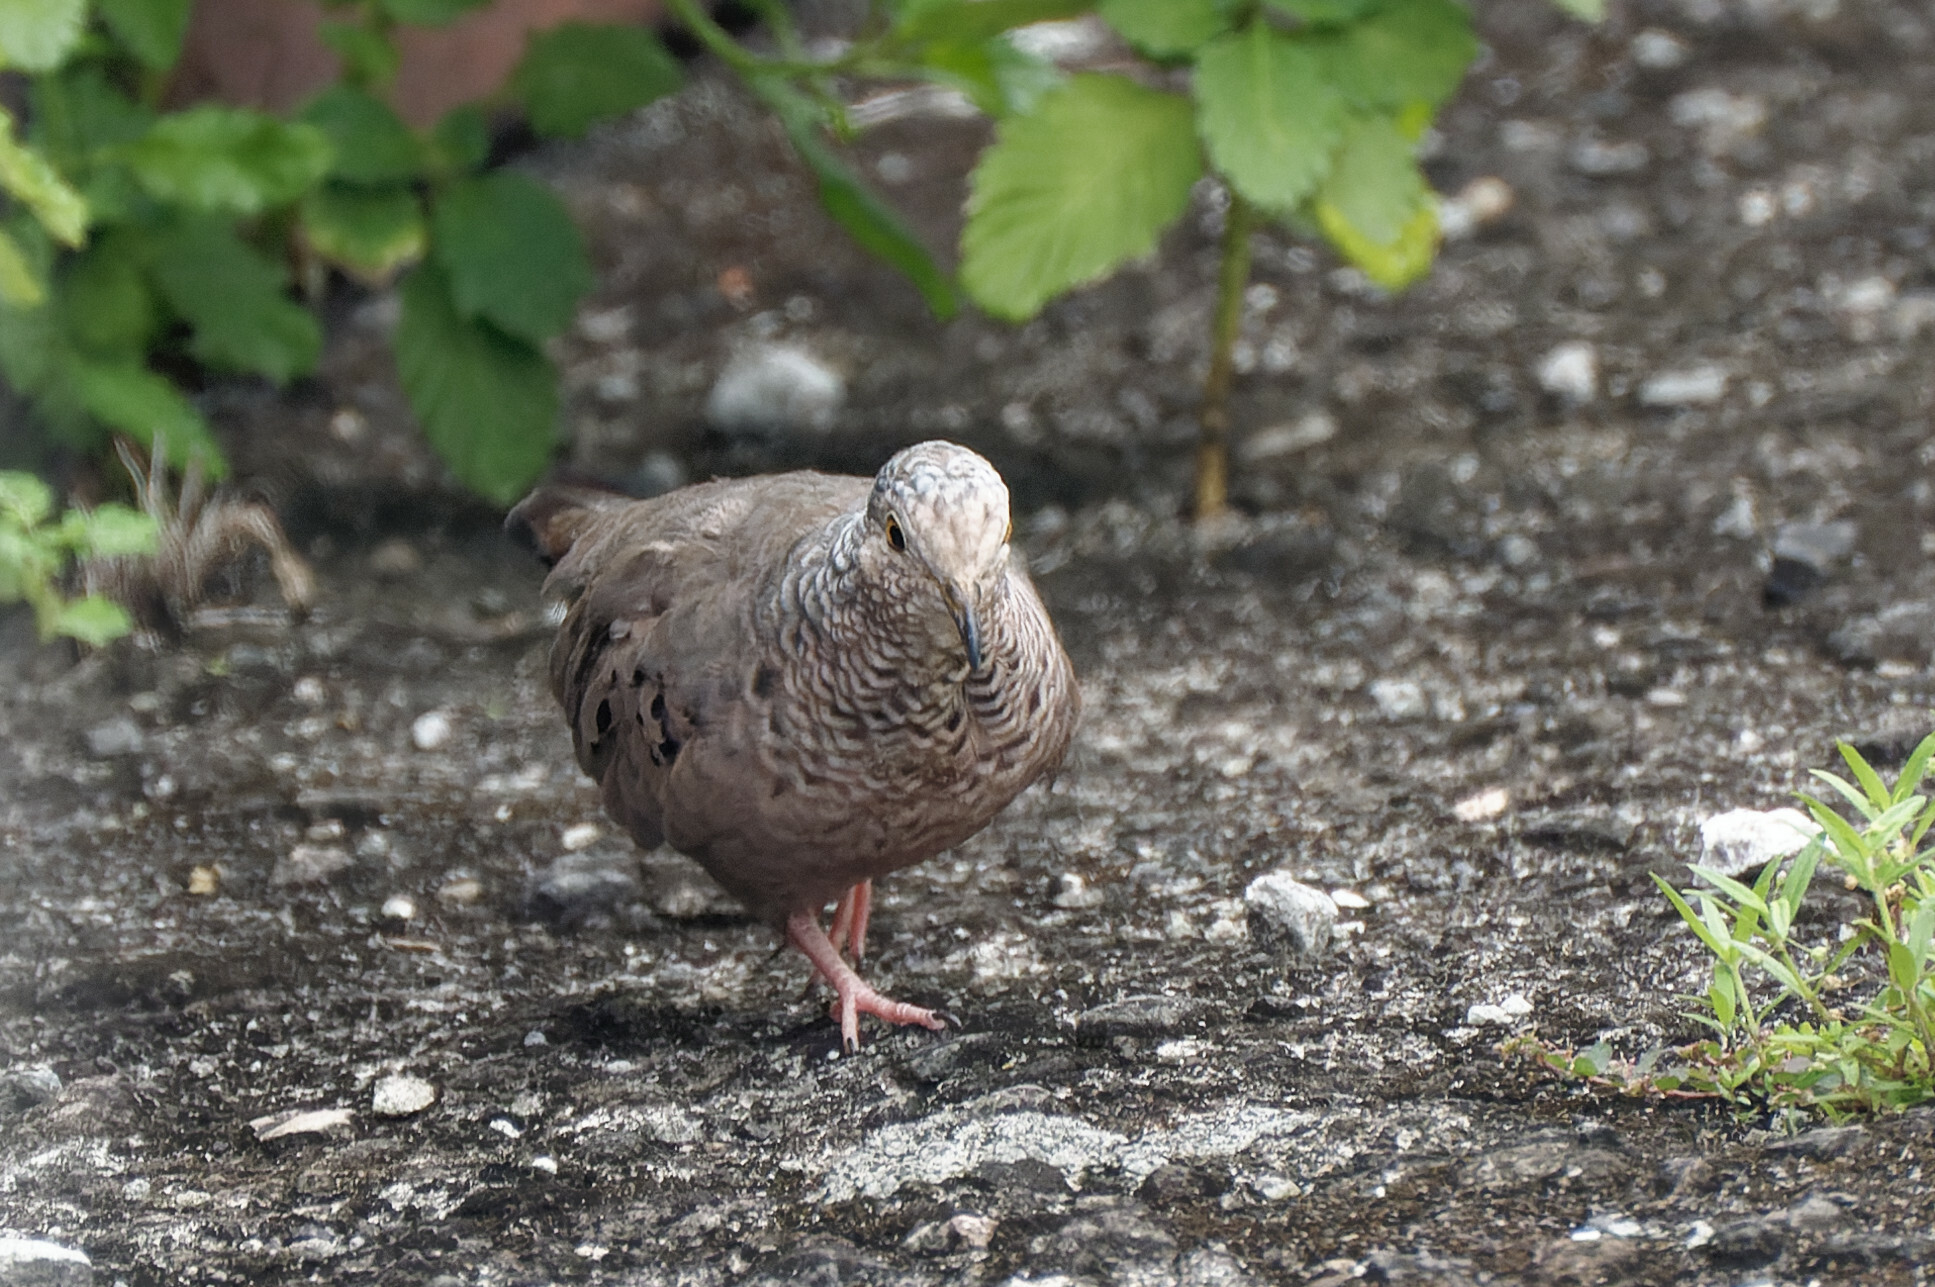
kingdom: Animalia
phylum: Chordata
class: Aves
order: Columbiformes
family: Columbidae
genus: Columbina
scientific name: Columbina passerina
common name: Common ground-dove
